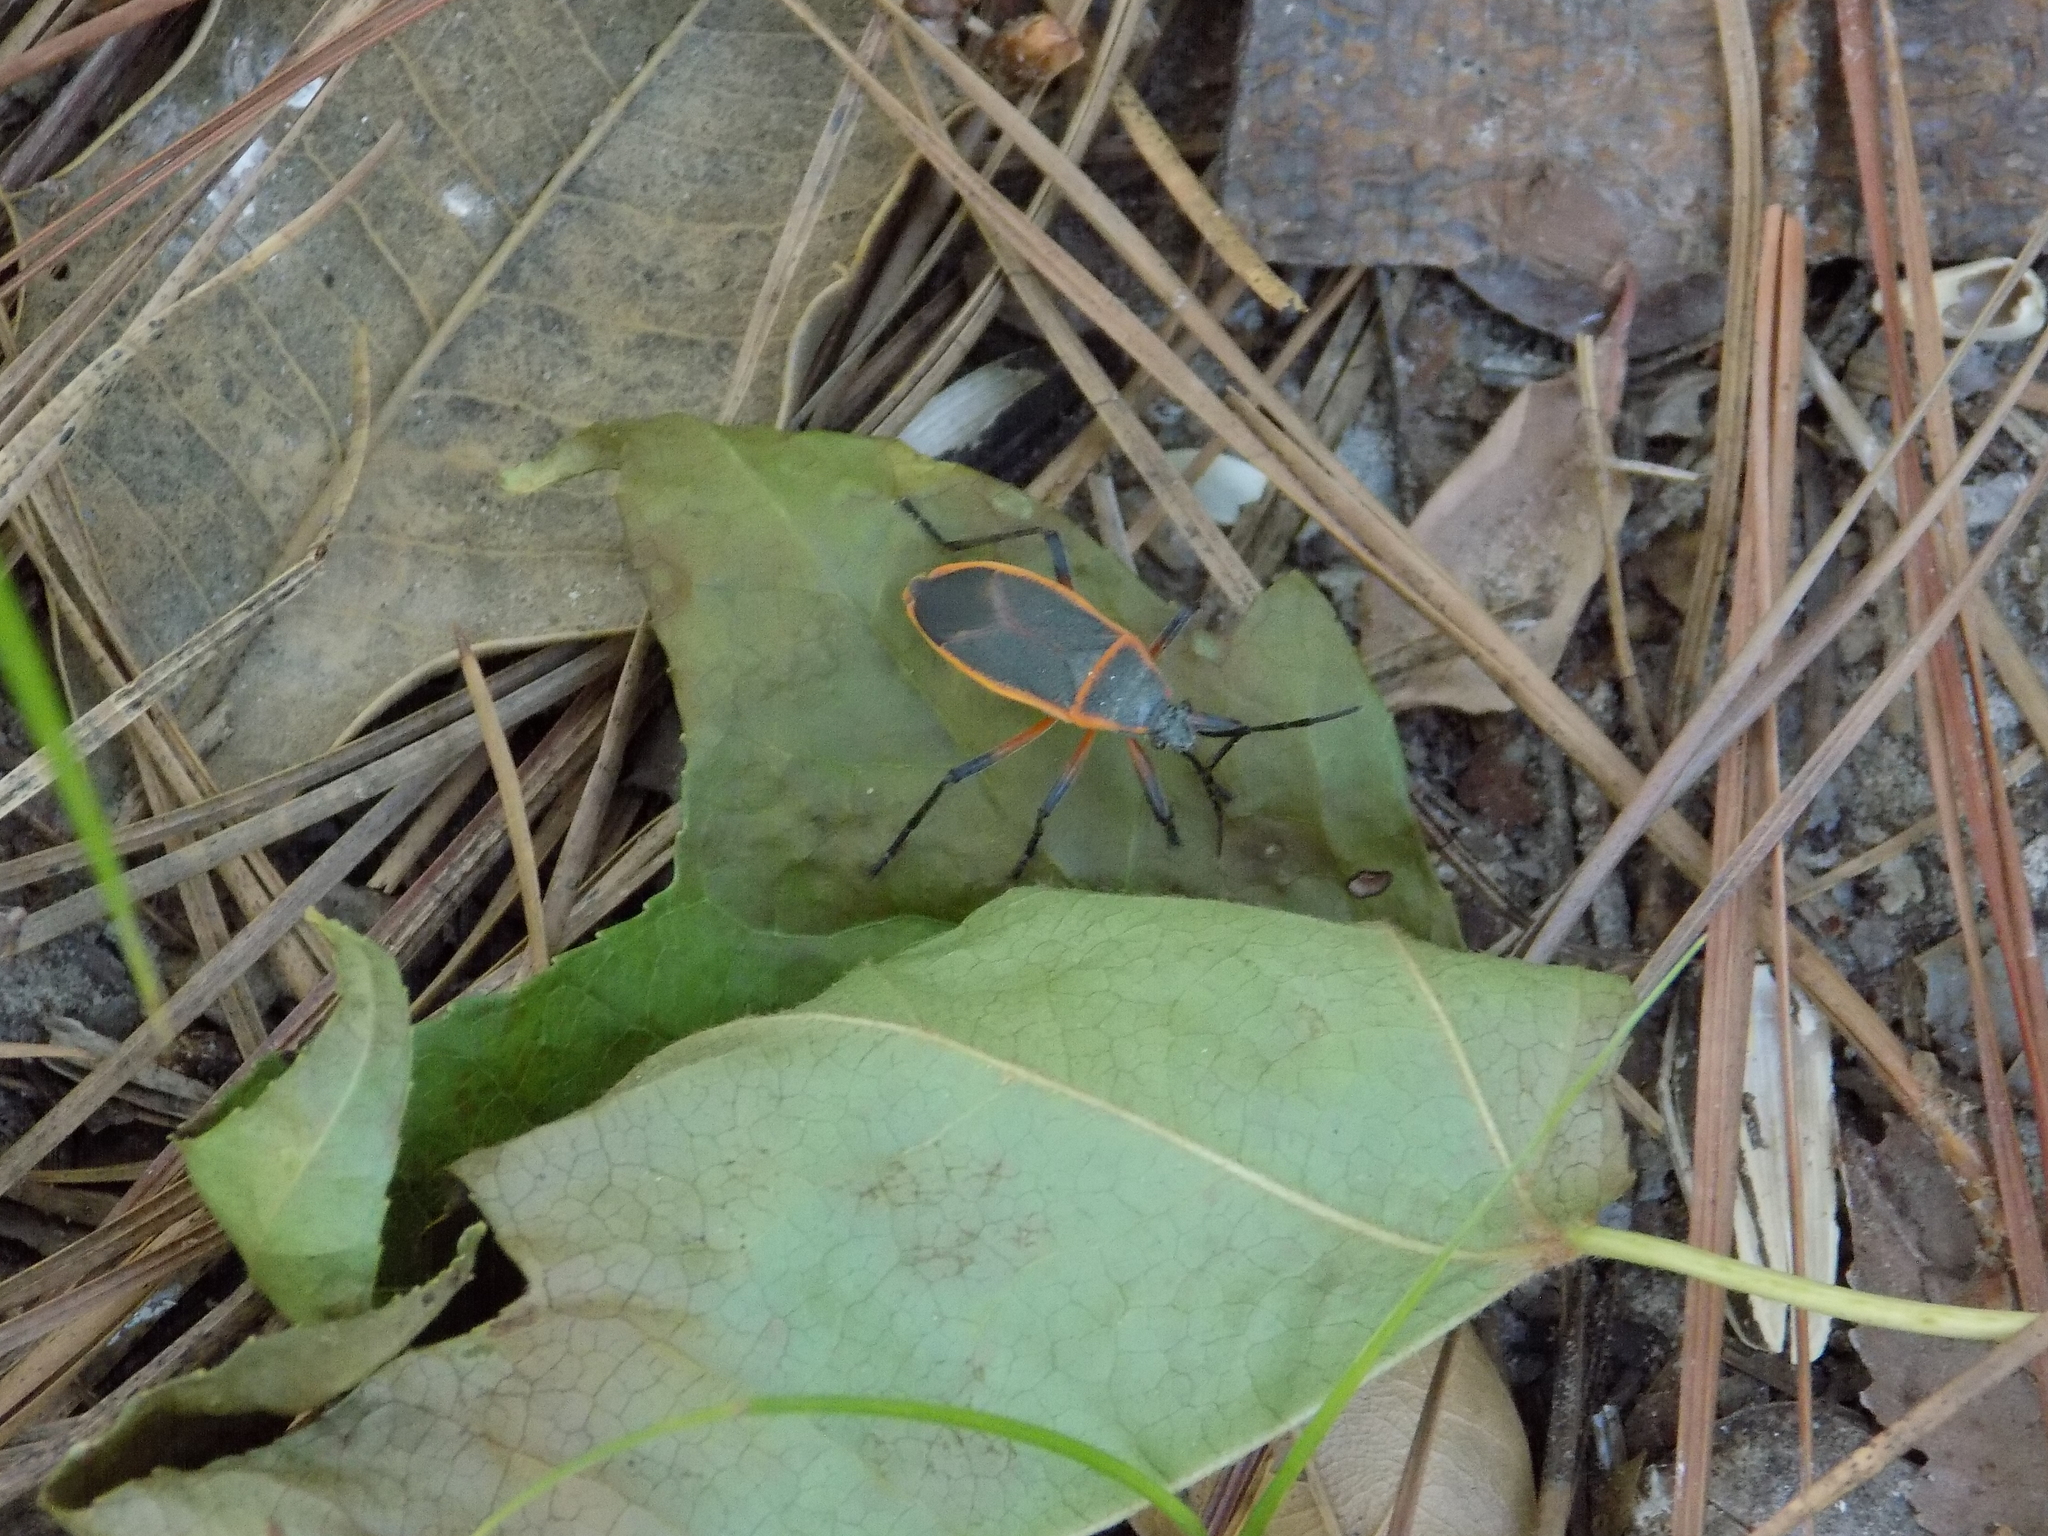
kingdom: Animalia
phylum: Arthropoda
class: Insecta
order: Hemiptera
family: Largidae
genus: Largus
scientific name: Largus succinctus
